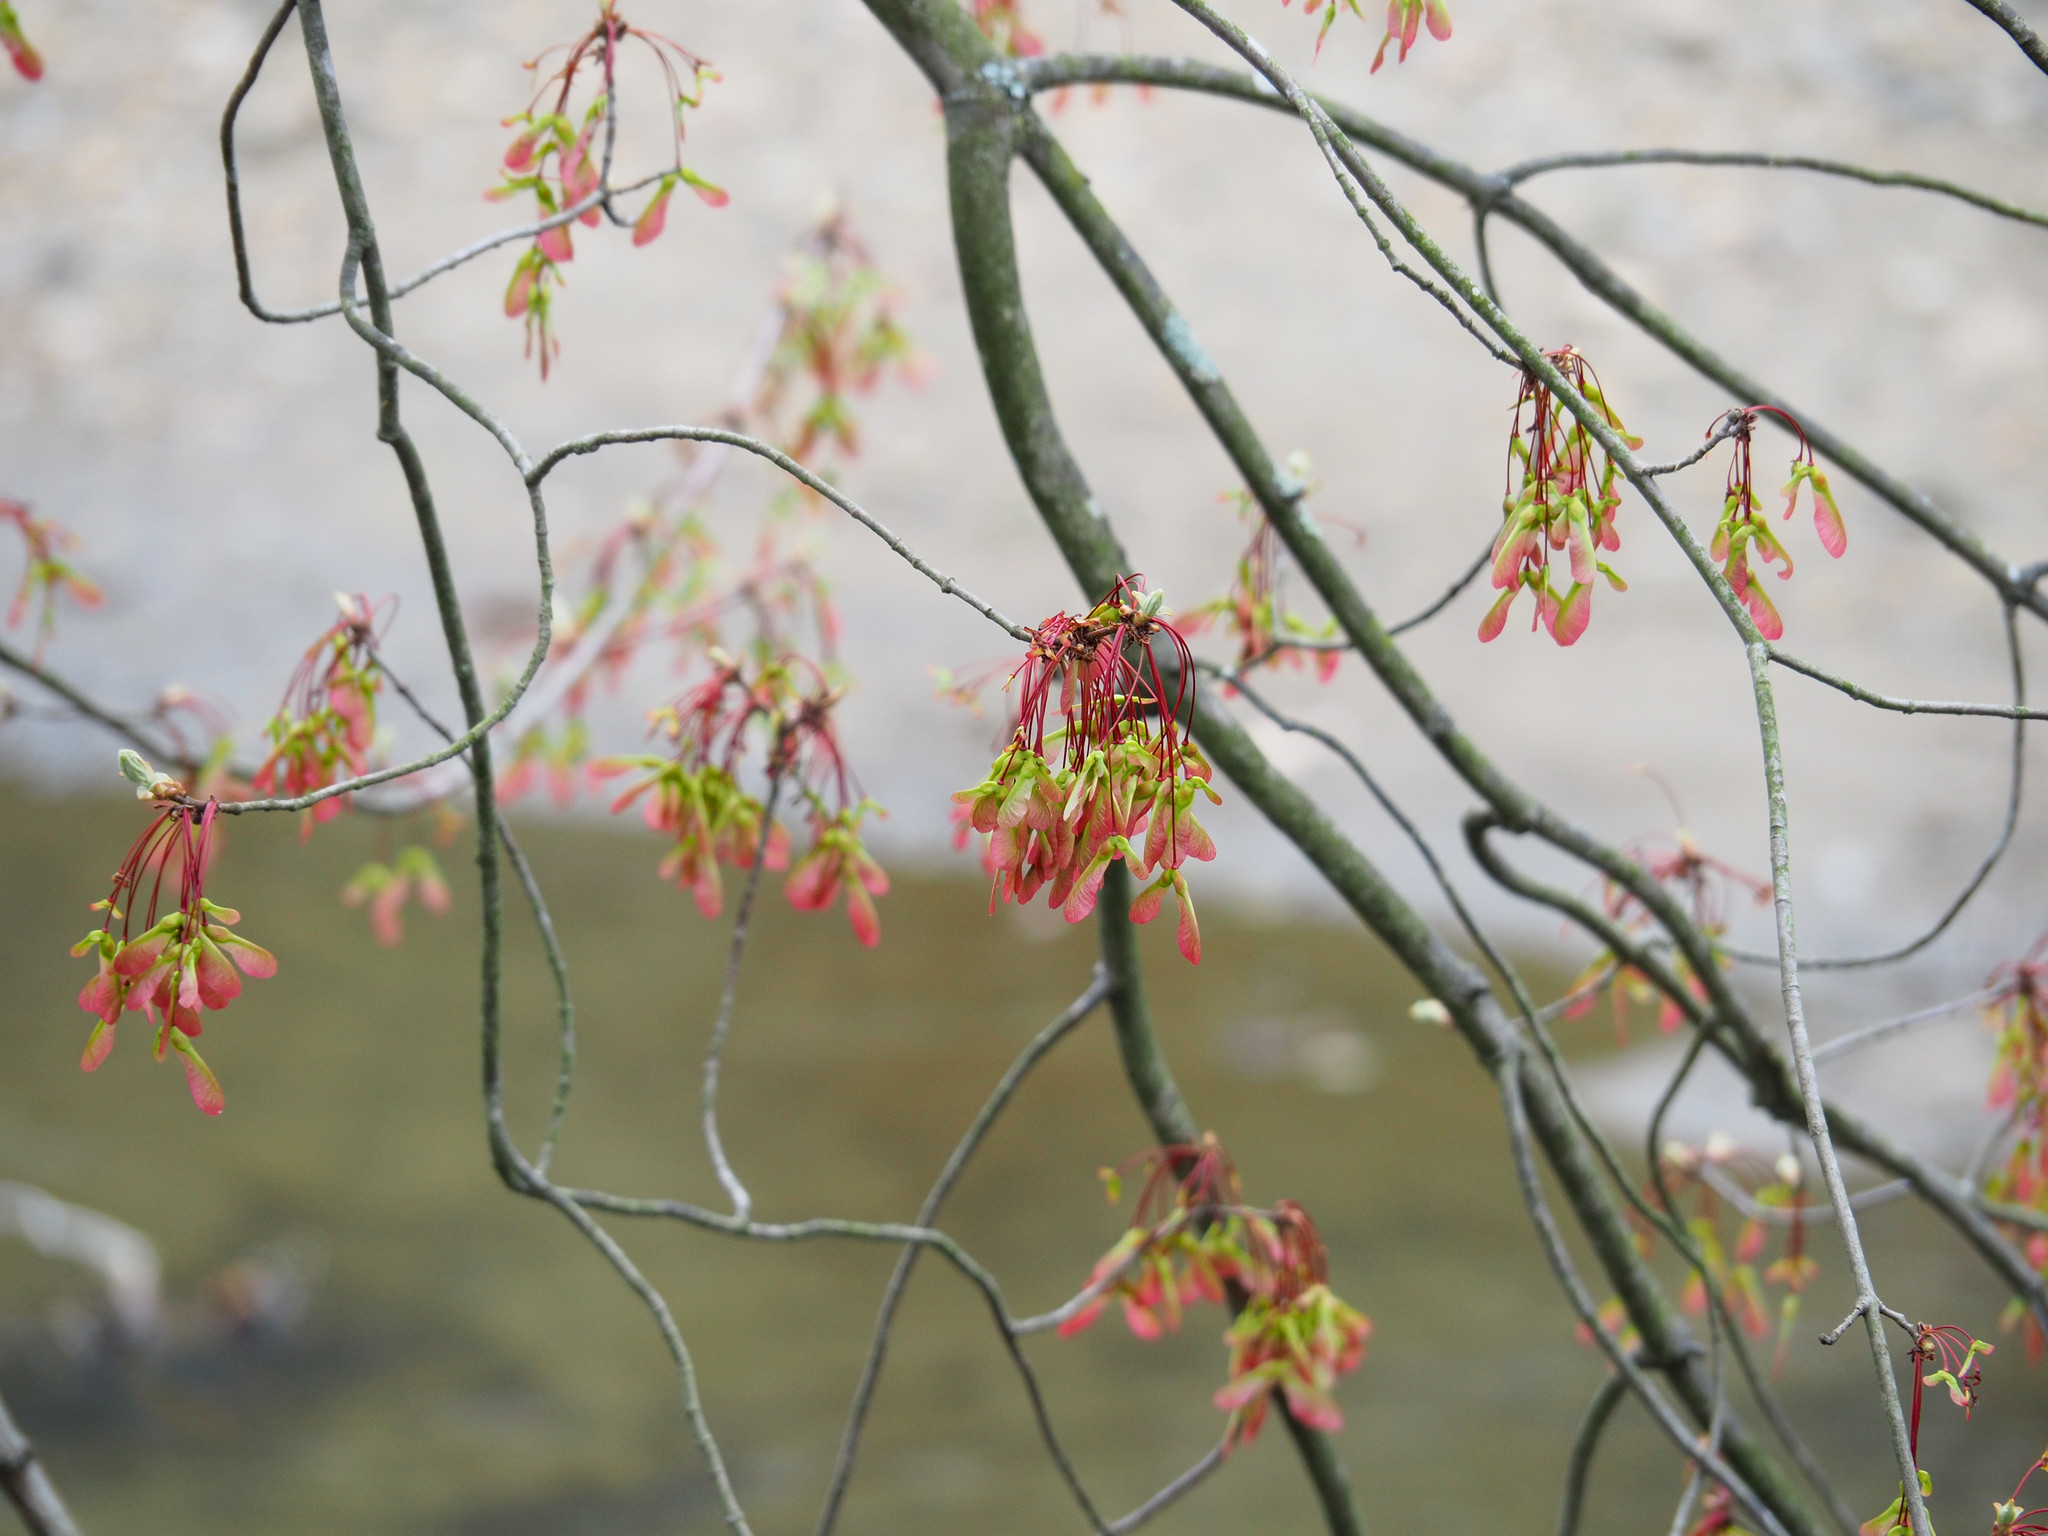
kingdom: Plantae
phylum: Tracheophyta
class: Magnoliopsida
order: Sapindales
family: Sapindaceae
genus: Acer
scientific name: Acer rubrum
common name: Red maple
